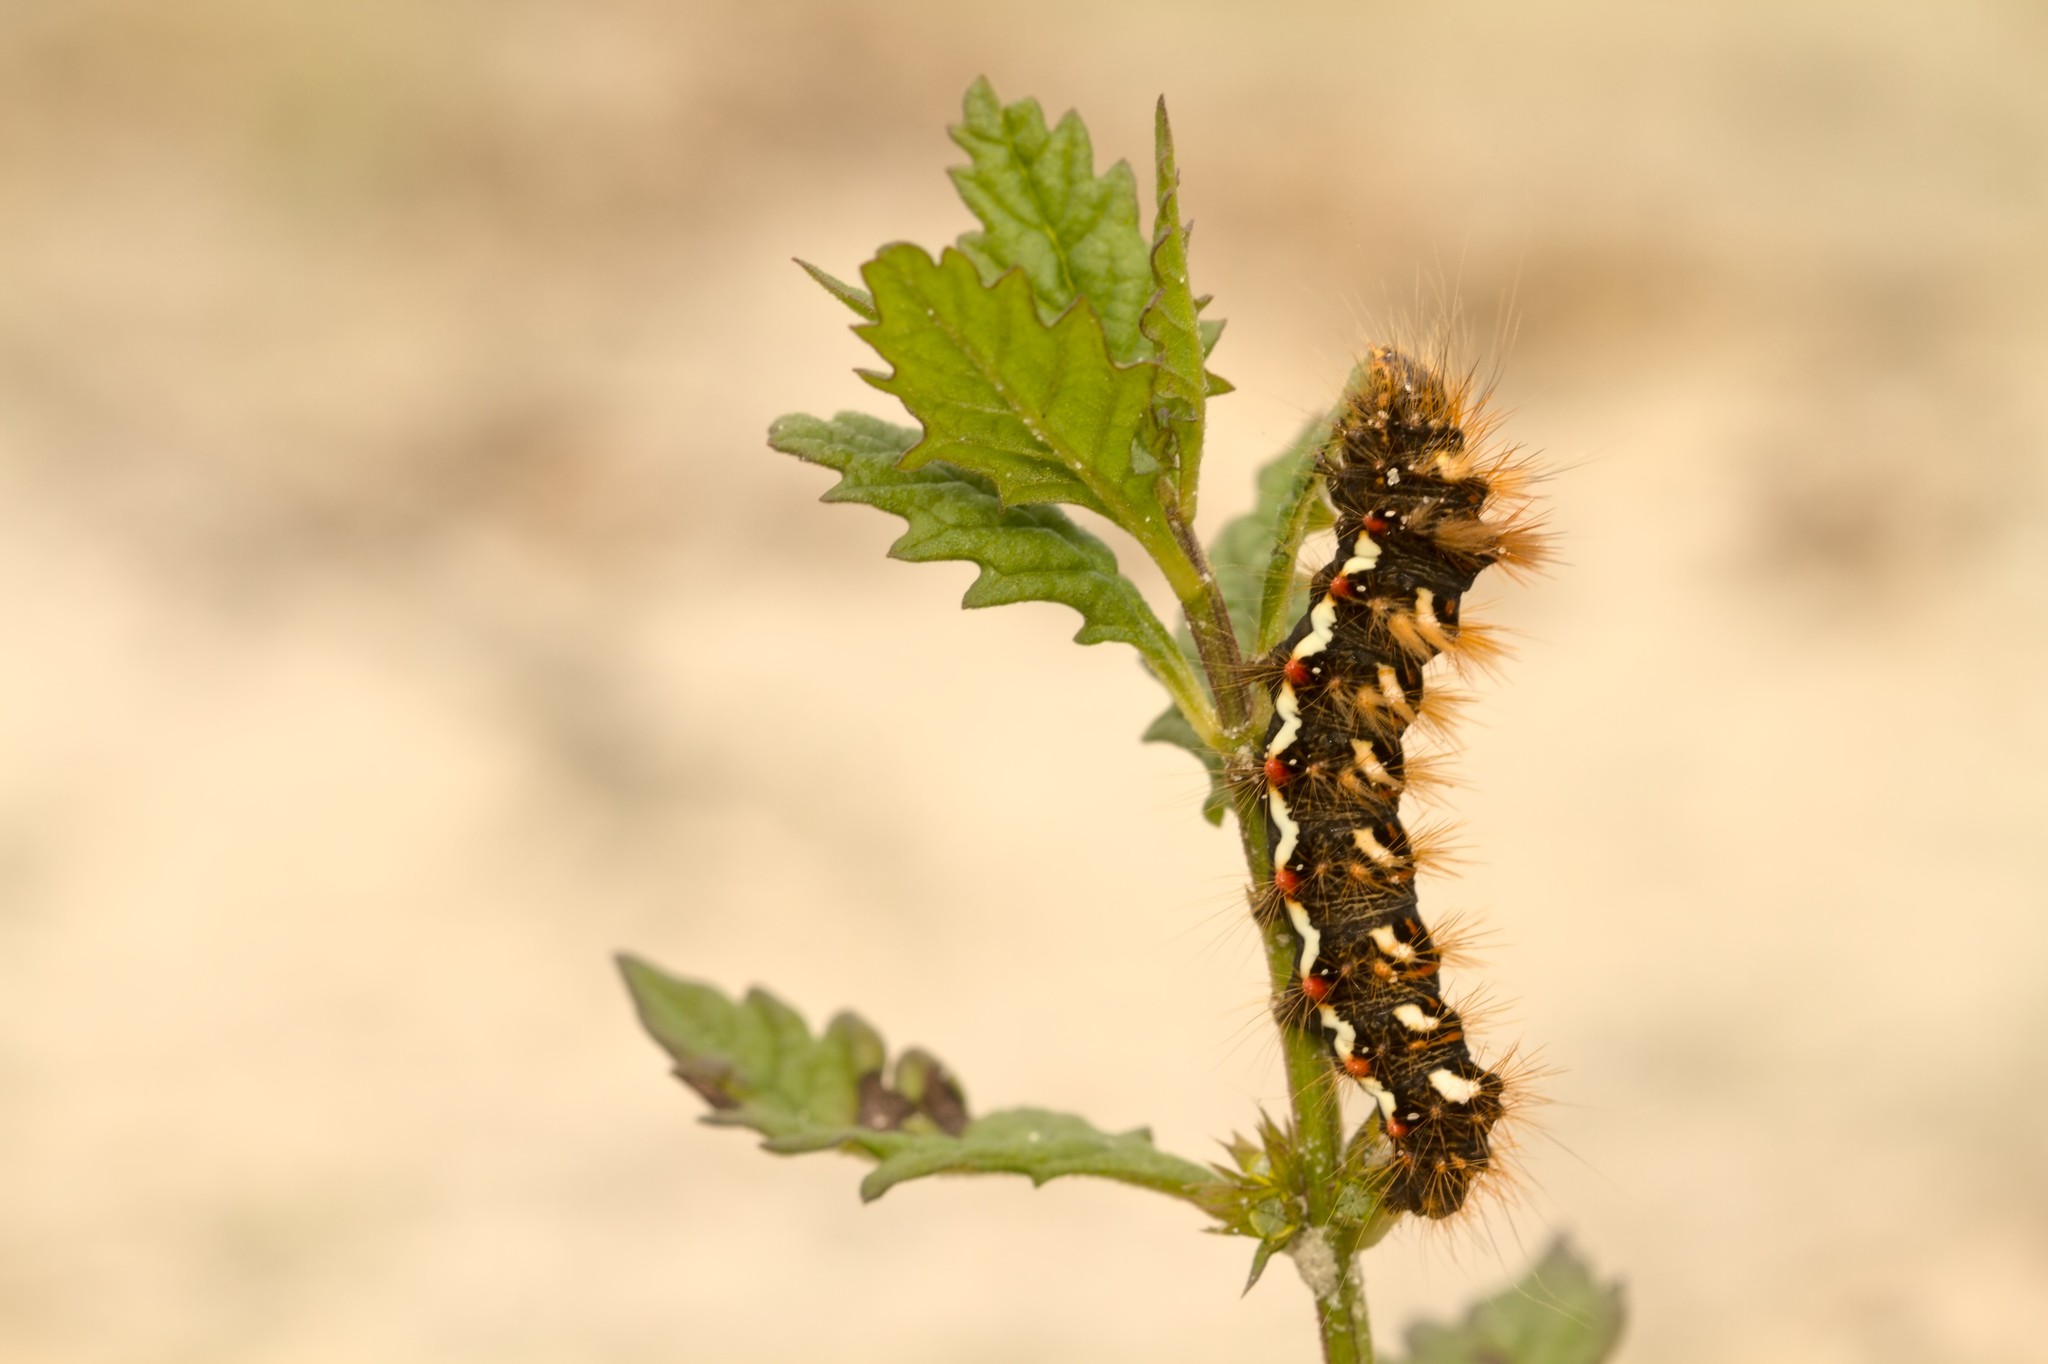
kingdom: Animalia
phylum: Arthropoda
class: Insecta
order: Lepidoptera
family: Noctuidae
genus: Acronicta
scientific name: Acronicta rumicis
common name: Knot grass
